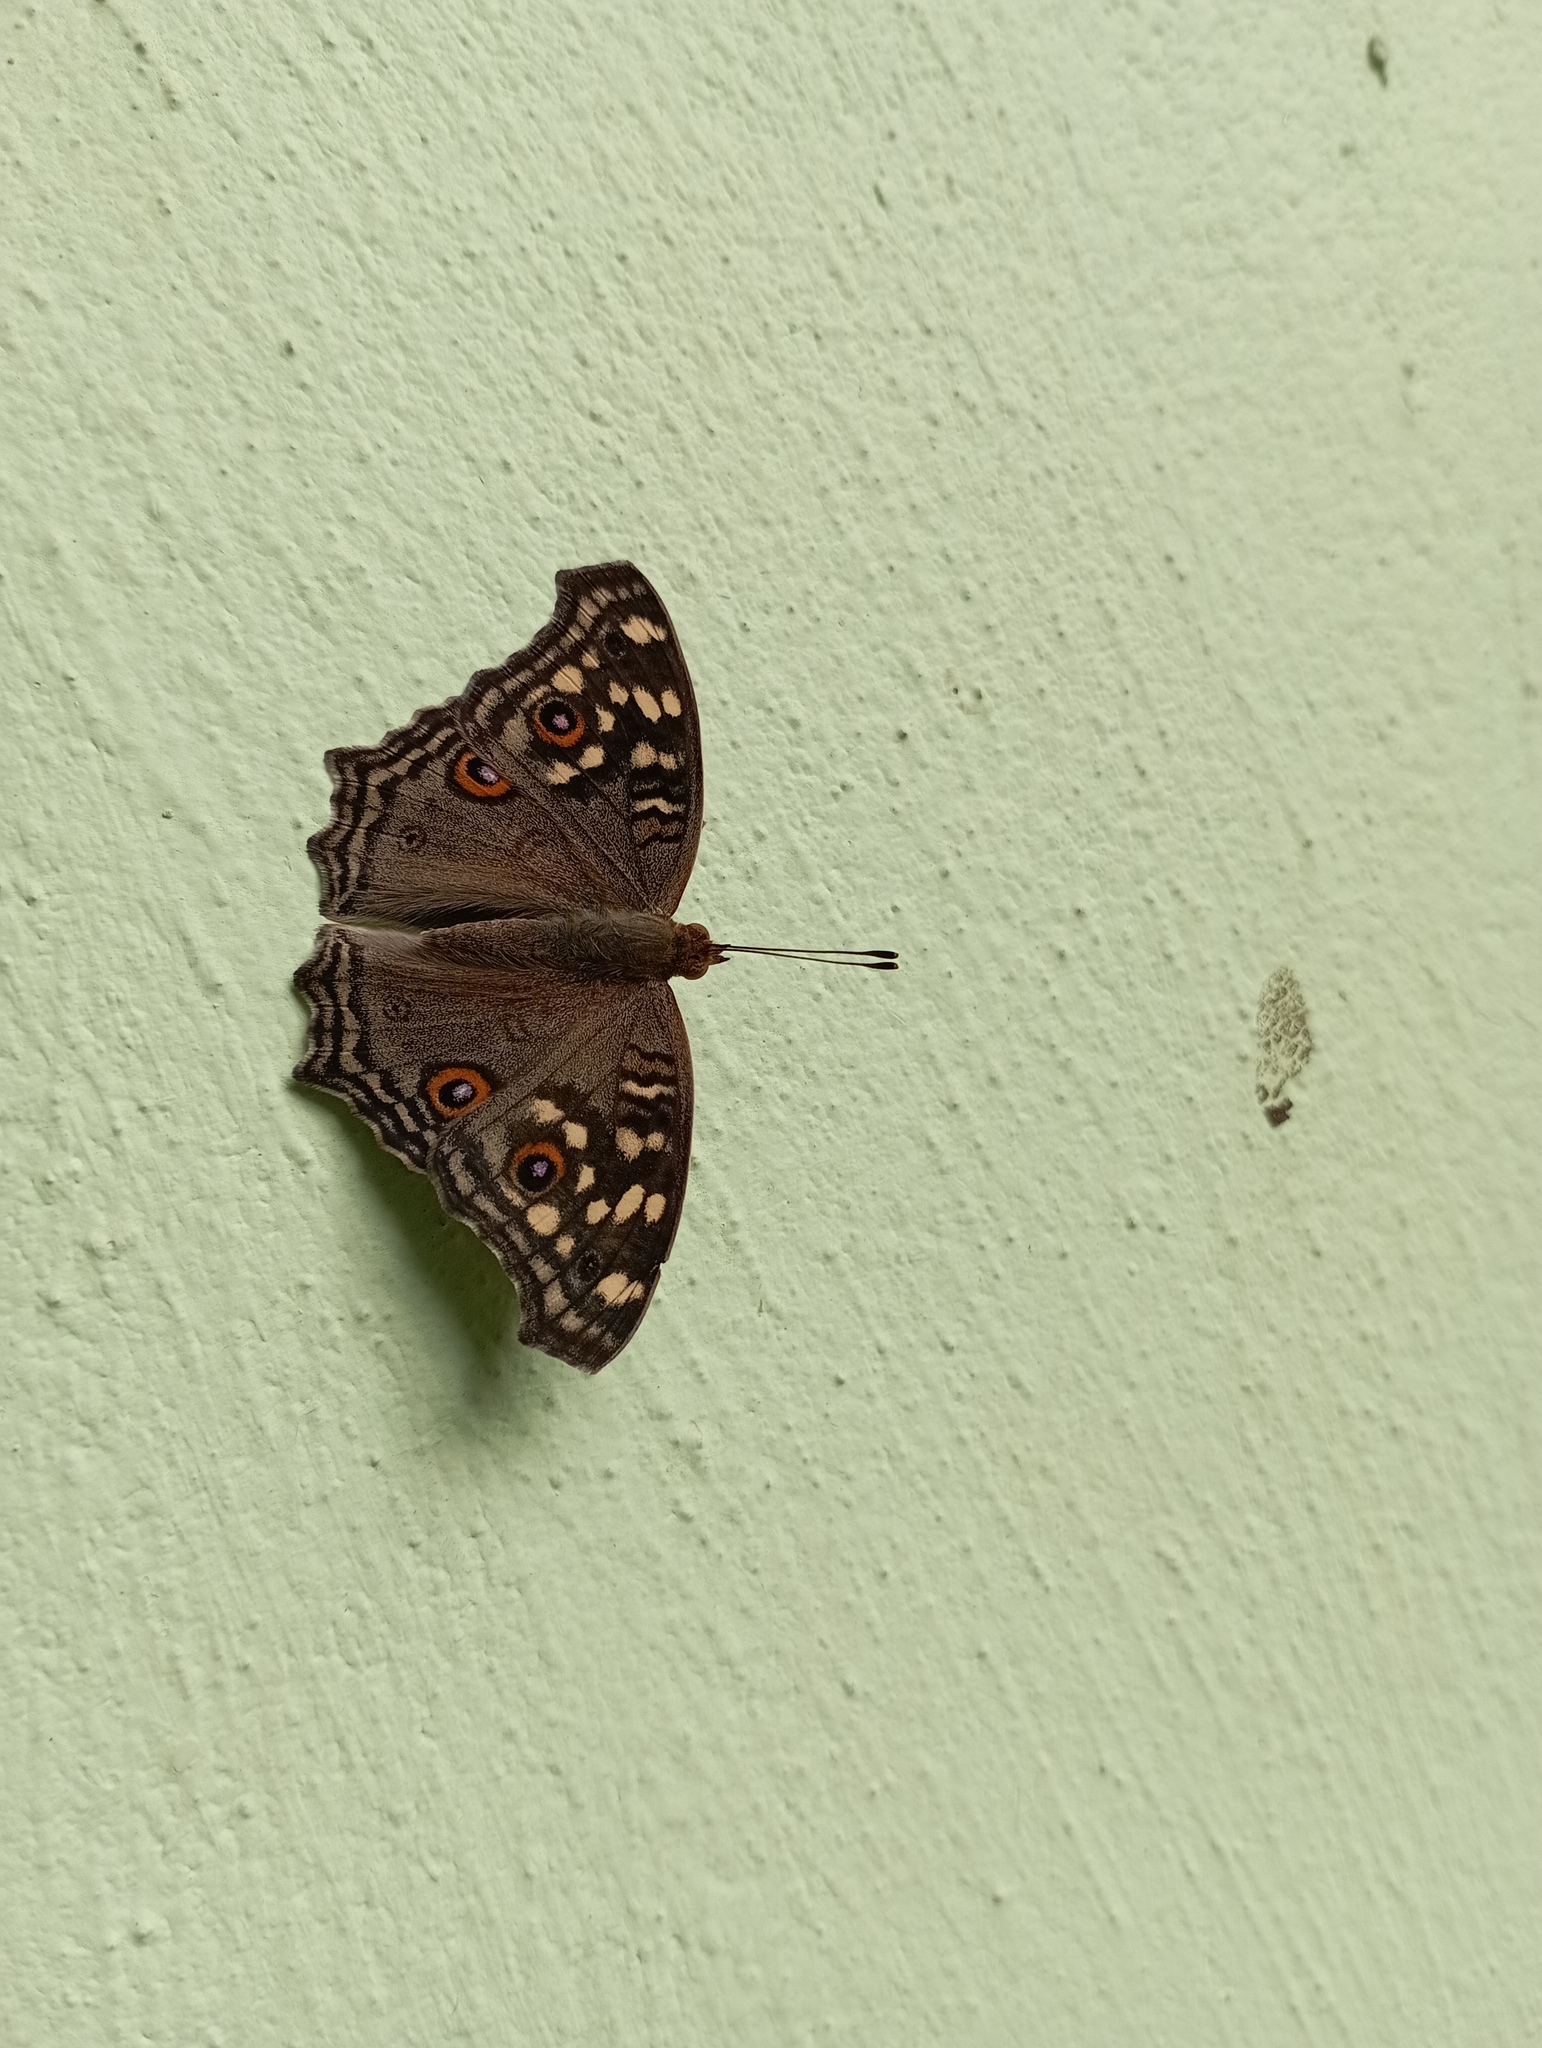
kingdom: Animalia
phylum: Arthropoda
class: Insecta
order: Lepidoptera
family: Nymphalidae
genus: Junonia
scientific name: Junonia lemonias
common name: Lemon pansy
